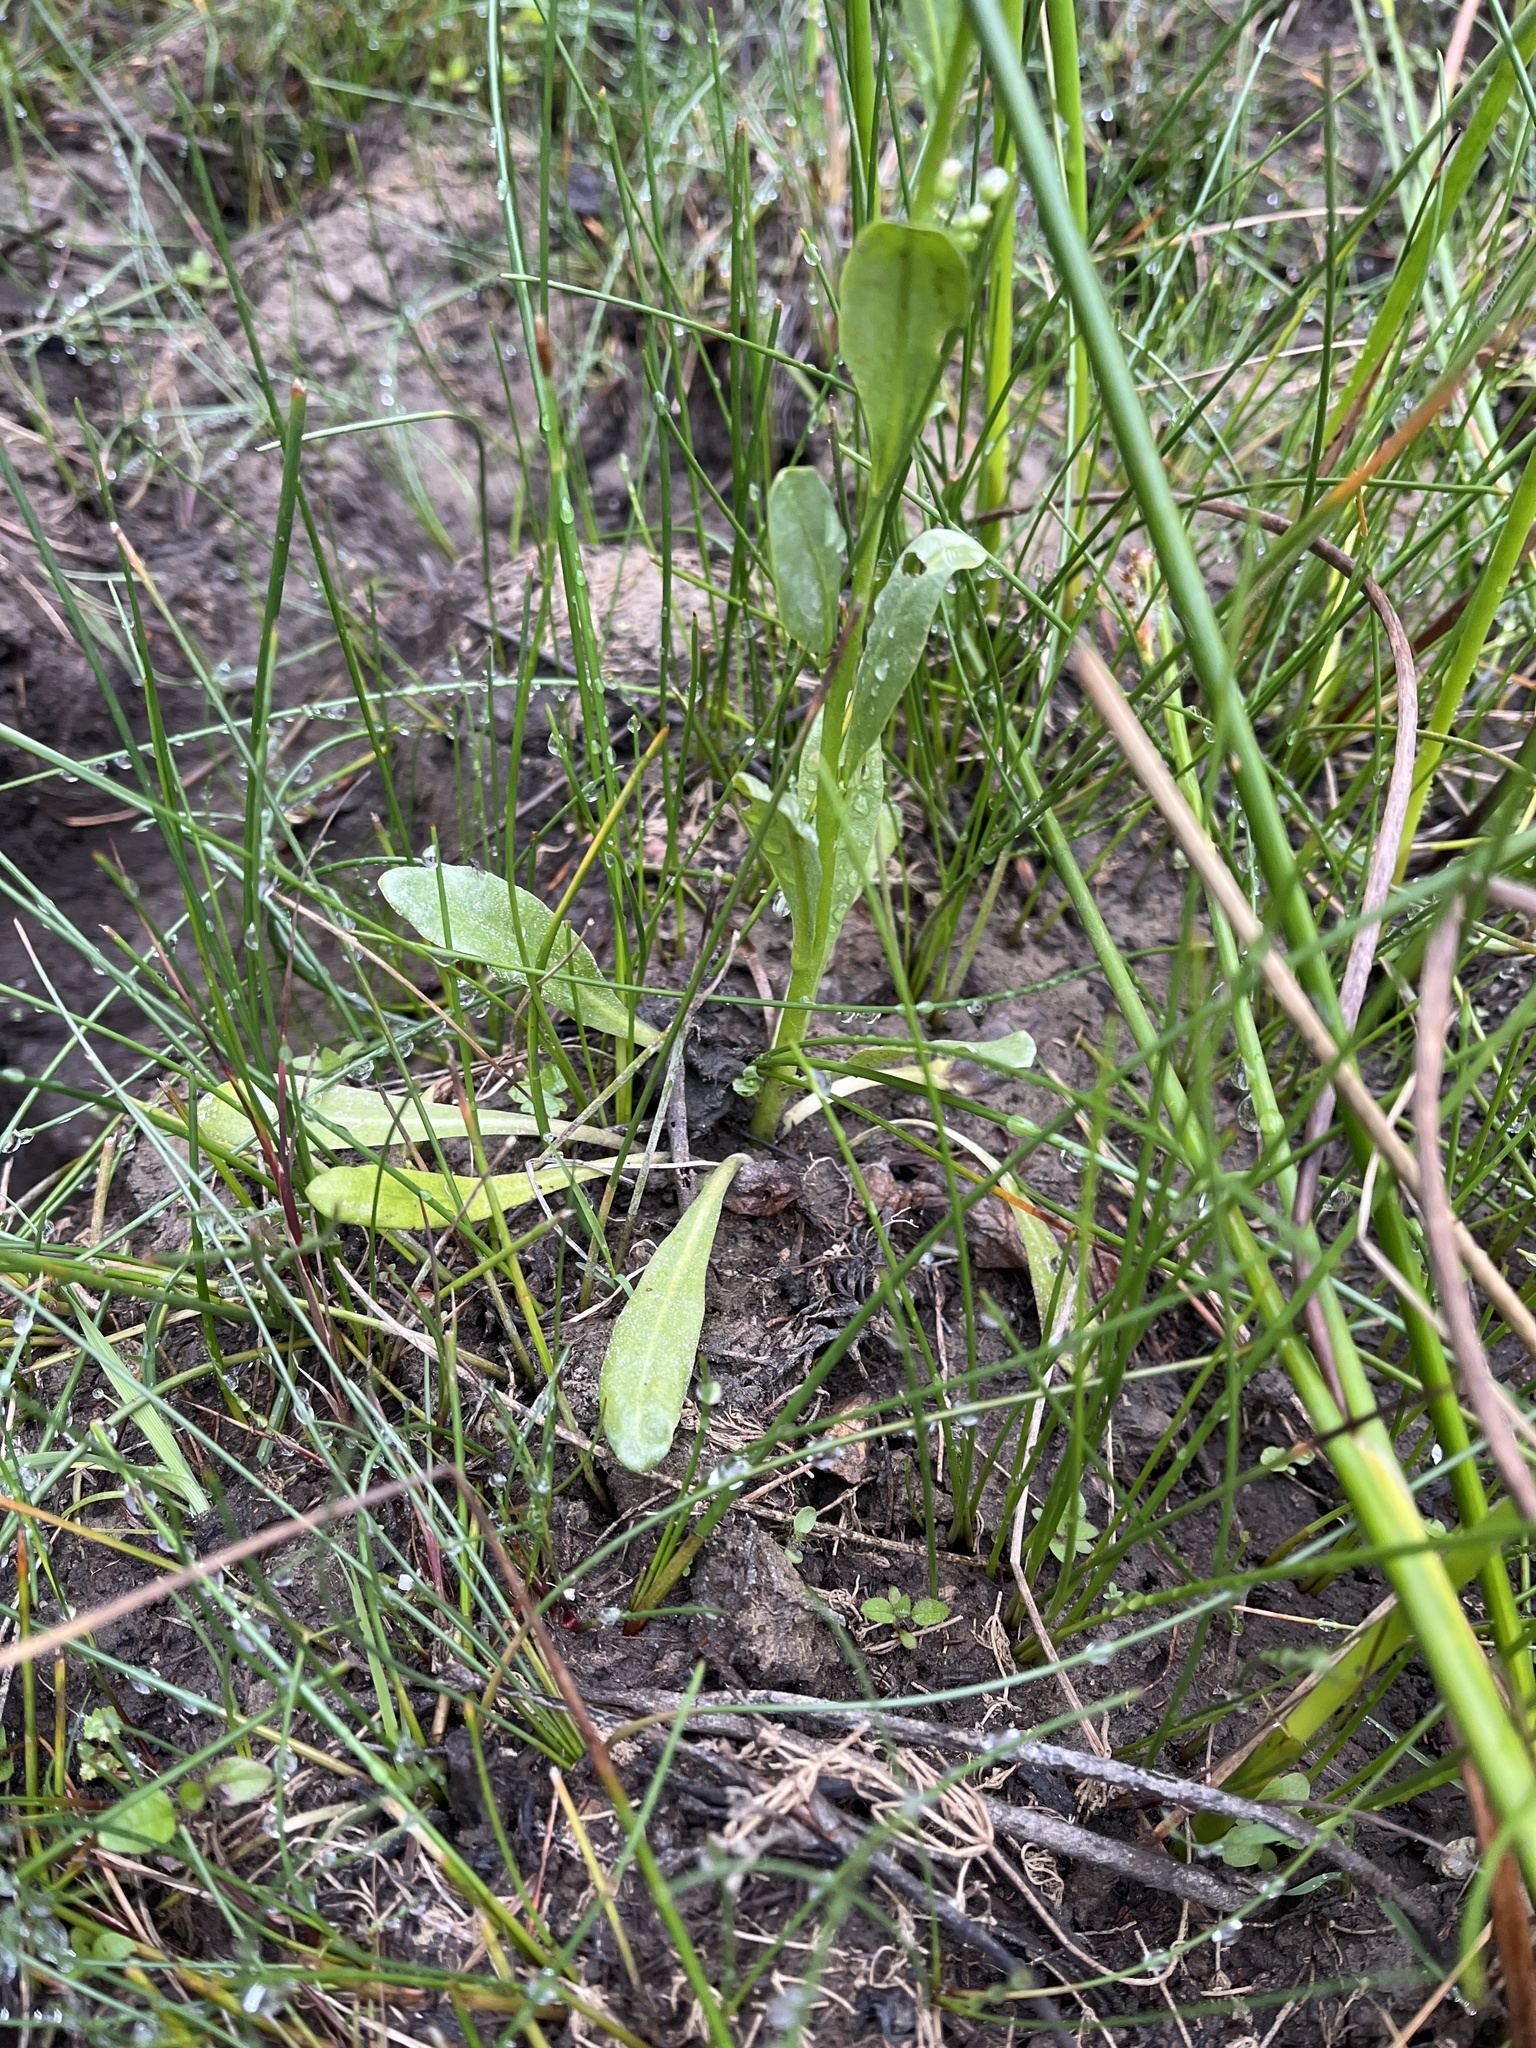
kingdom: Plantae
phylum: Tracheophyta
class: Magnoliopsida
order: Ericales
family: Primulaceae
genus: Samolus
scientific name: Samolus valerandi
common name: Brookweed
